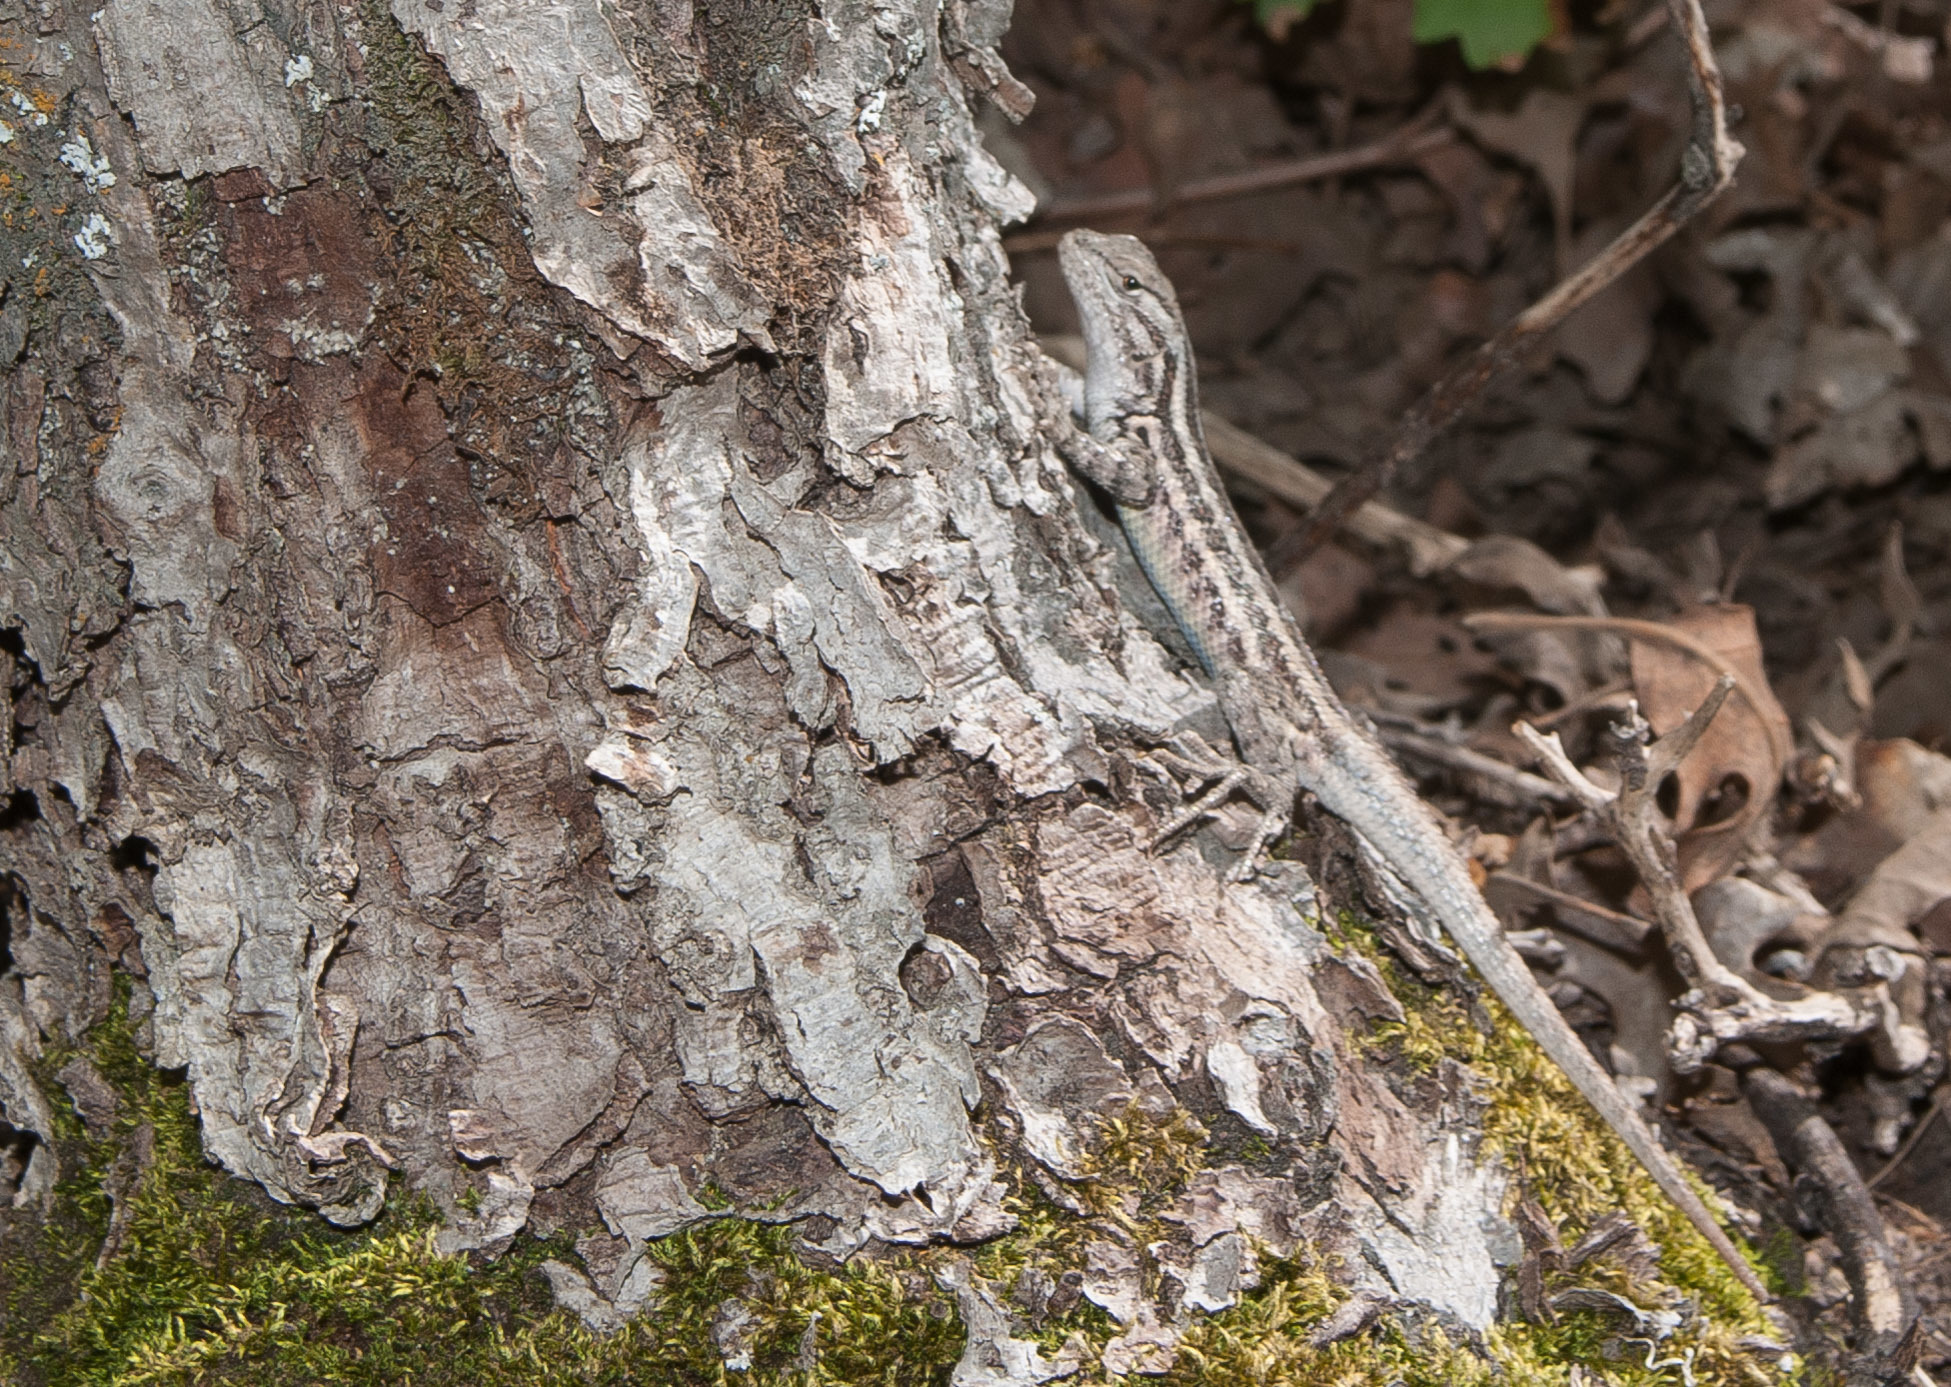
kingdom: Animalia
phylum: Chordata
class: Squamata
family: Phrynosomatidae
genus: Sceloporus
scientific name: Sceloporus graciosus
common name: Sagebrush lizard
